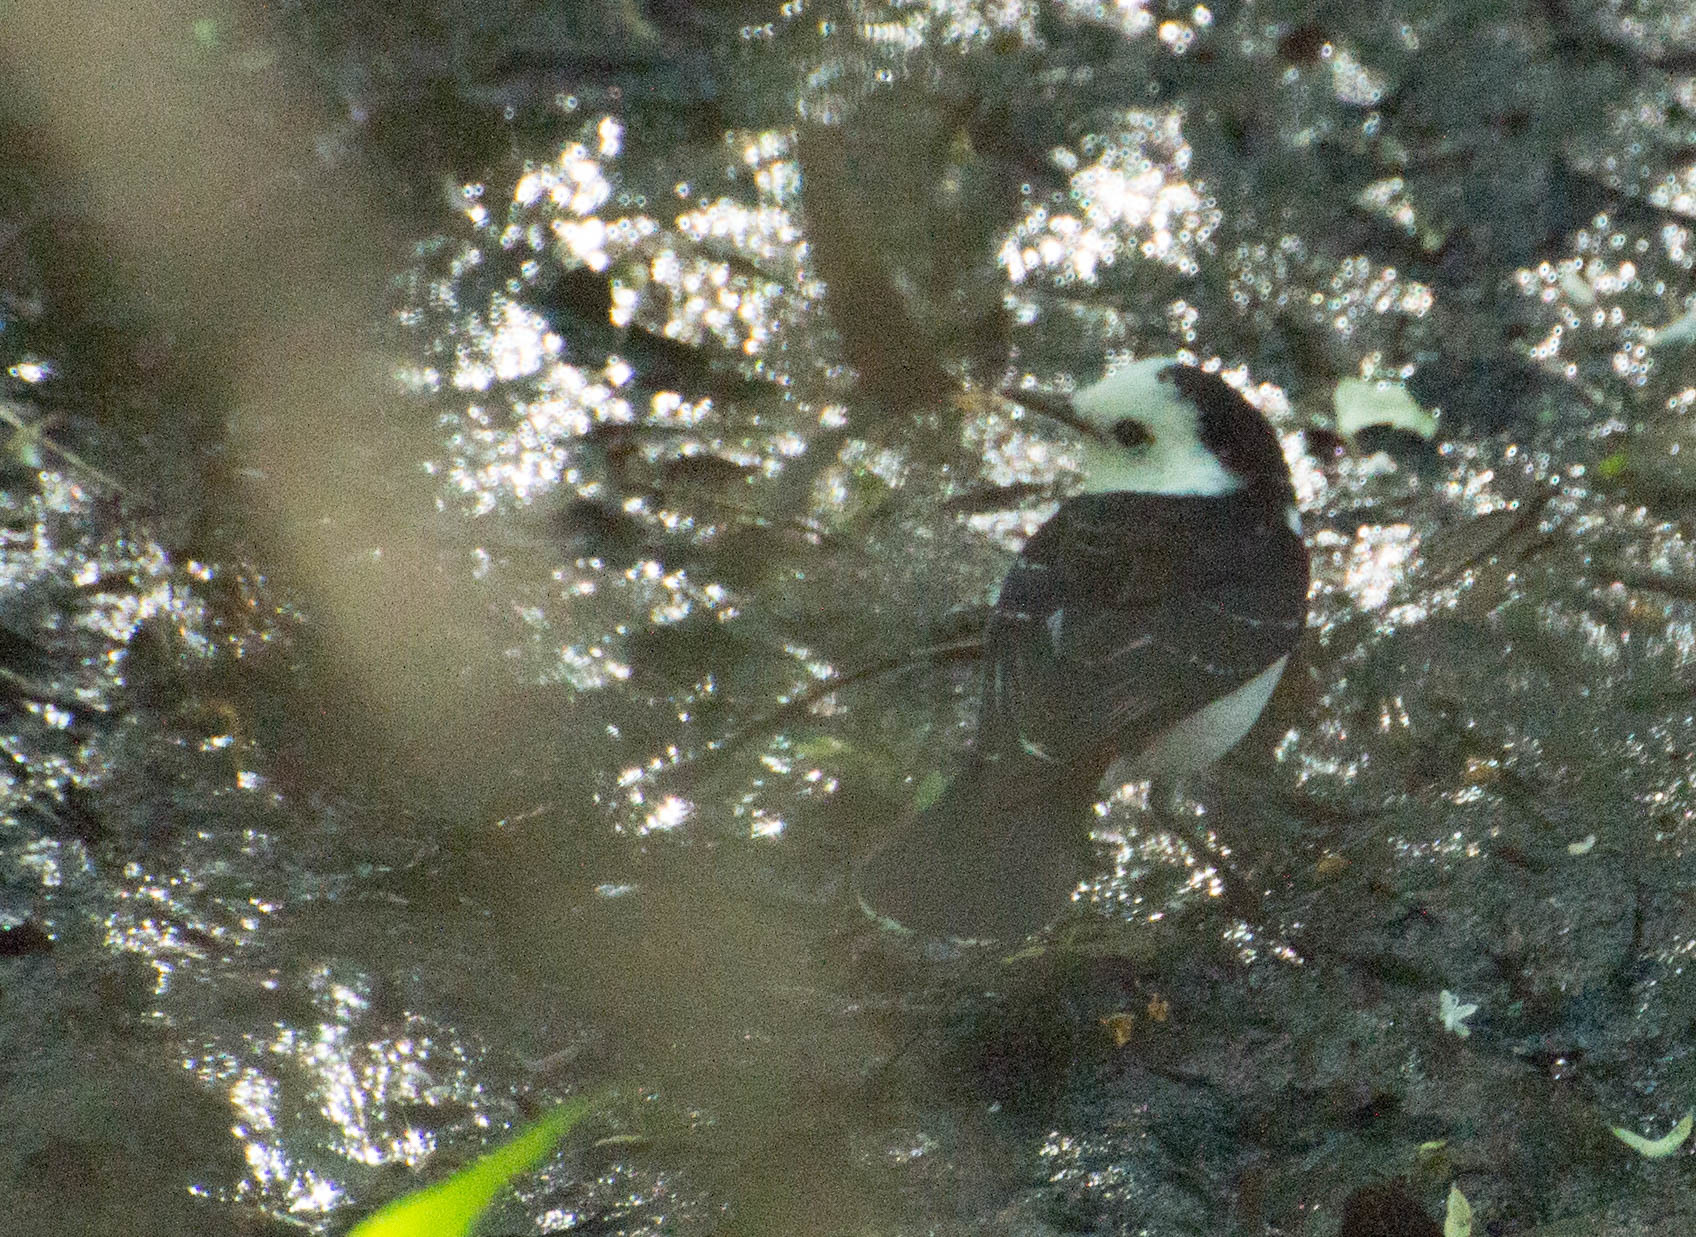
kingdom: Animalia
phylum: Chordata
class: Aves
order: Passeriformes
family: Tyrannidae
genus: Fluvicola
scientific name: Fluvicola pica
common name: Pied water-tyrant
